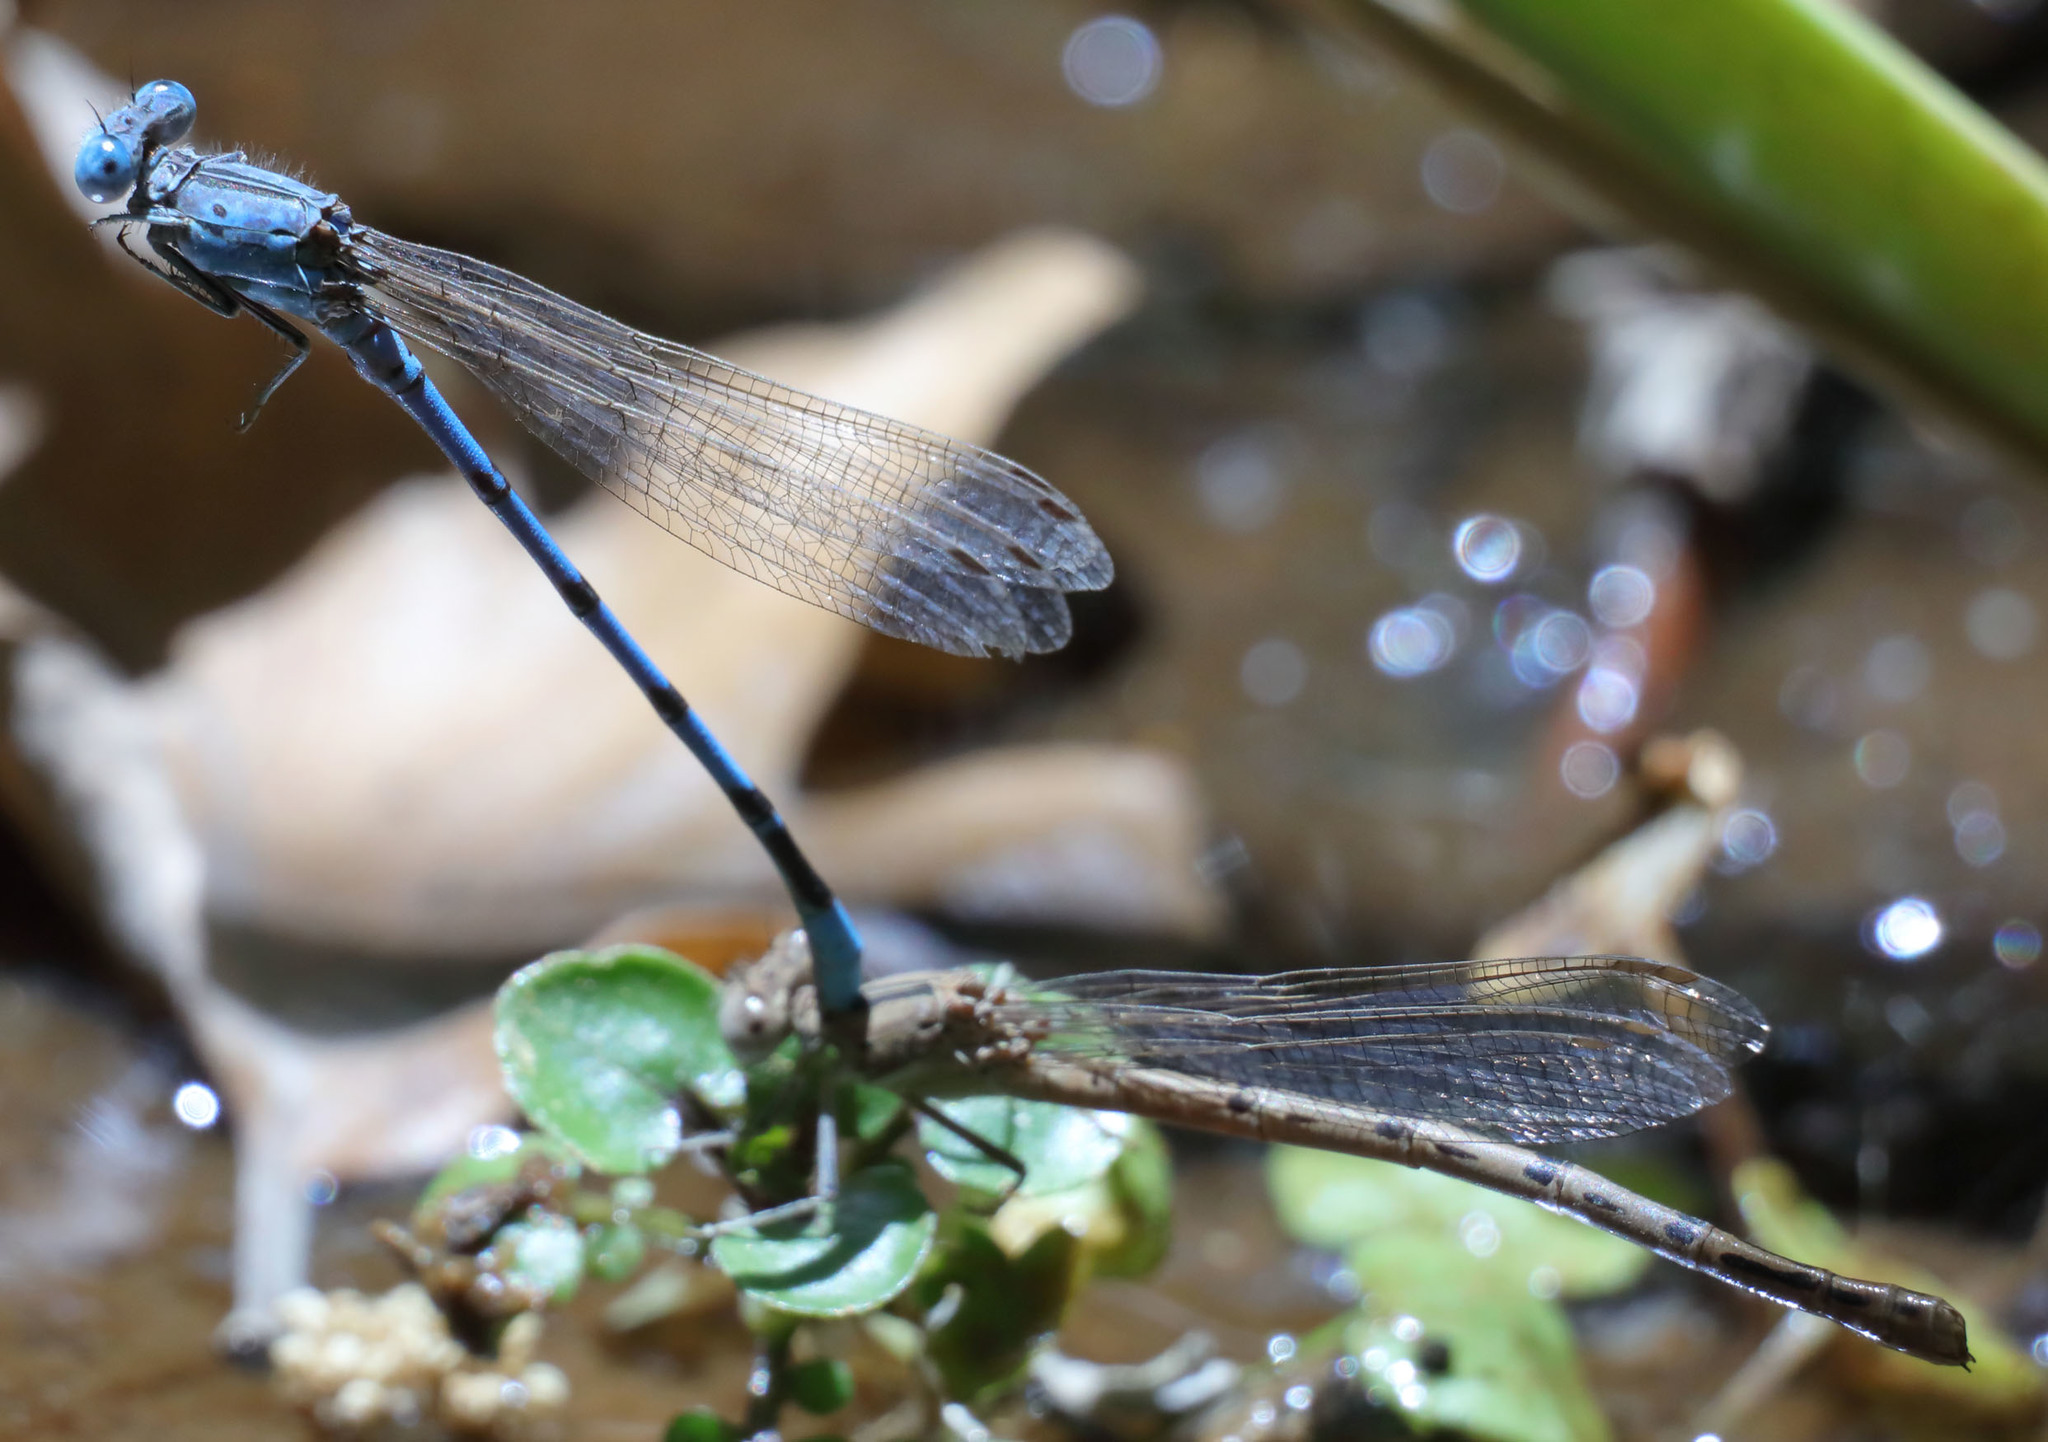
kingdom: Animalia
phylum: Arthropoda
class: Insecta
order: Odonata
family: Coenagrionidae
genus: Argia
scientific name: Argia nahuana
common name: Aztec dancer
